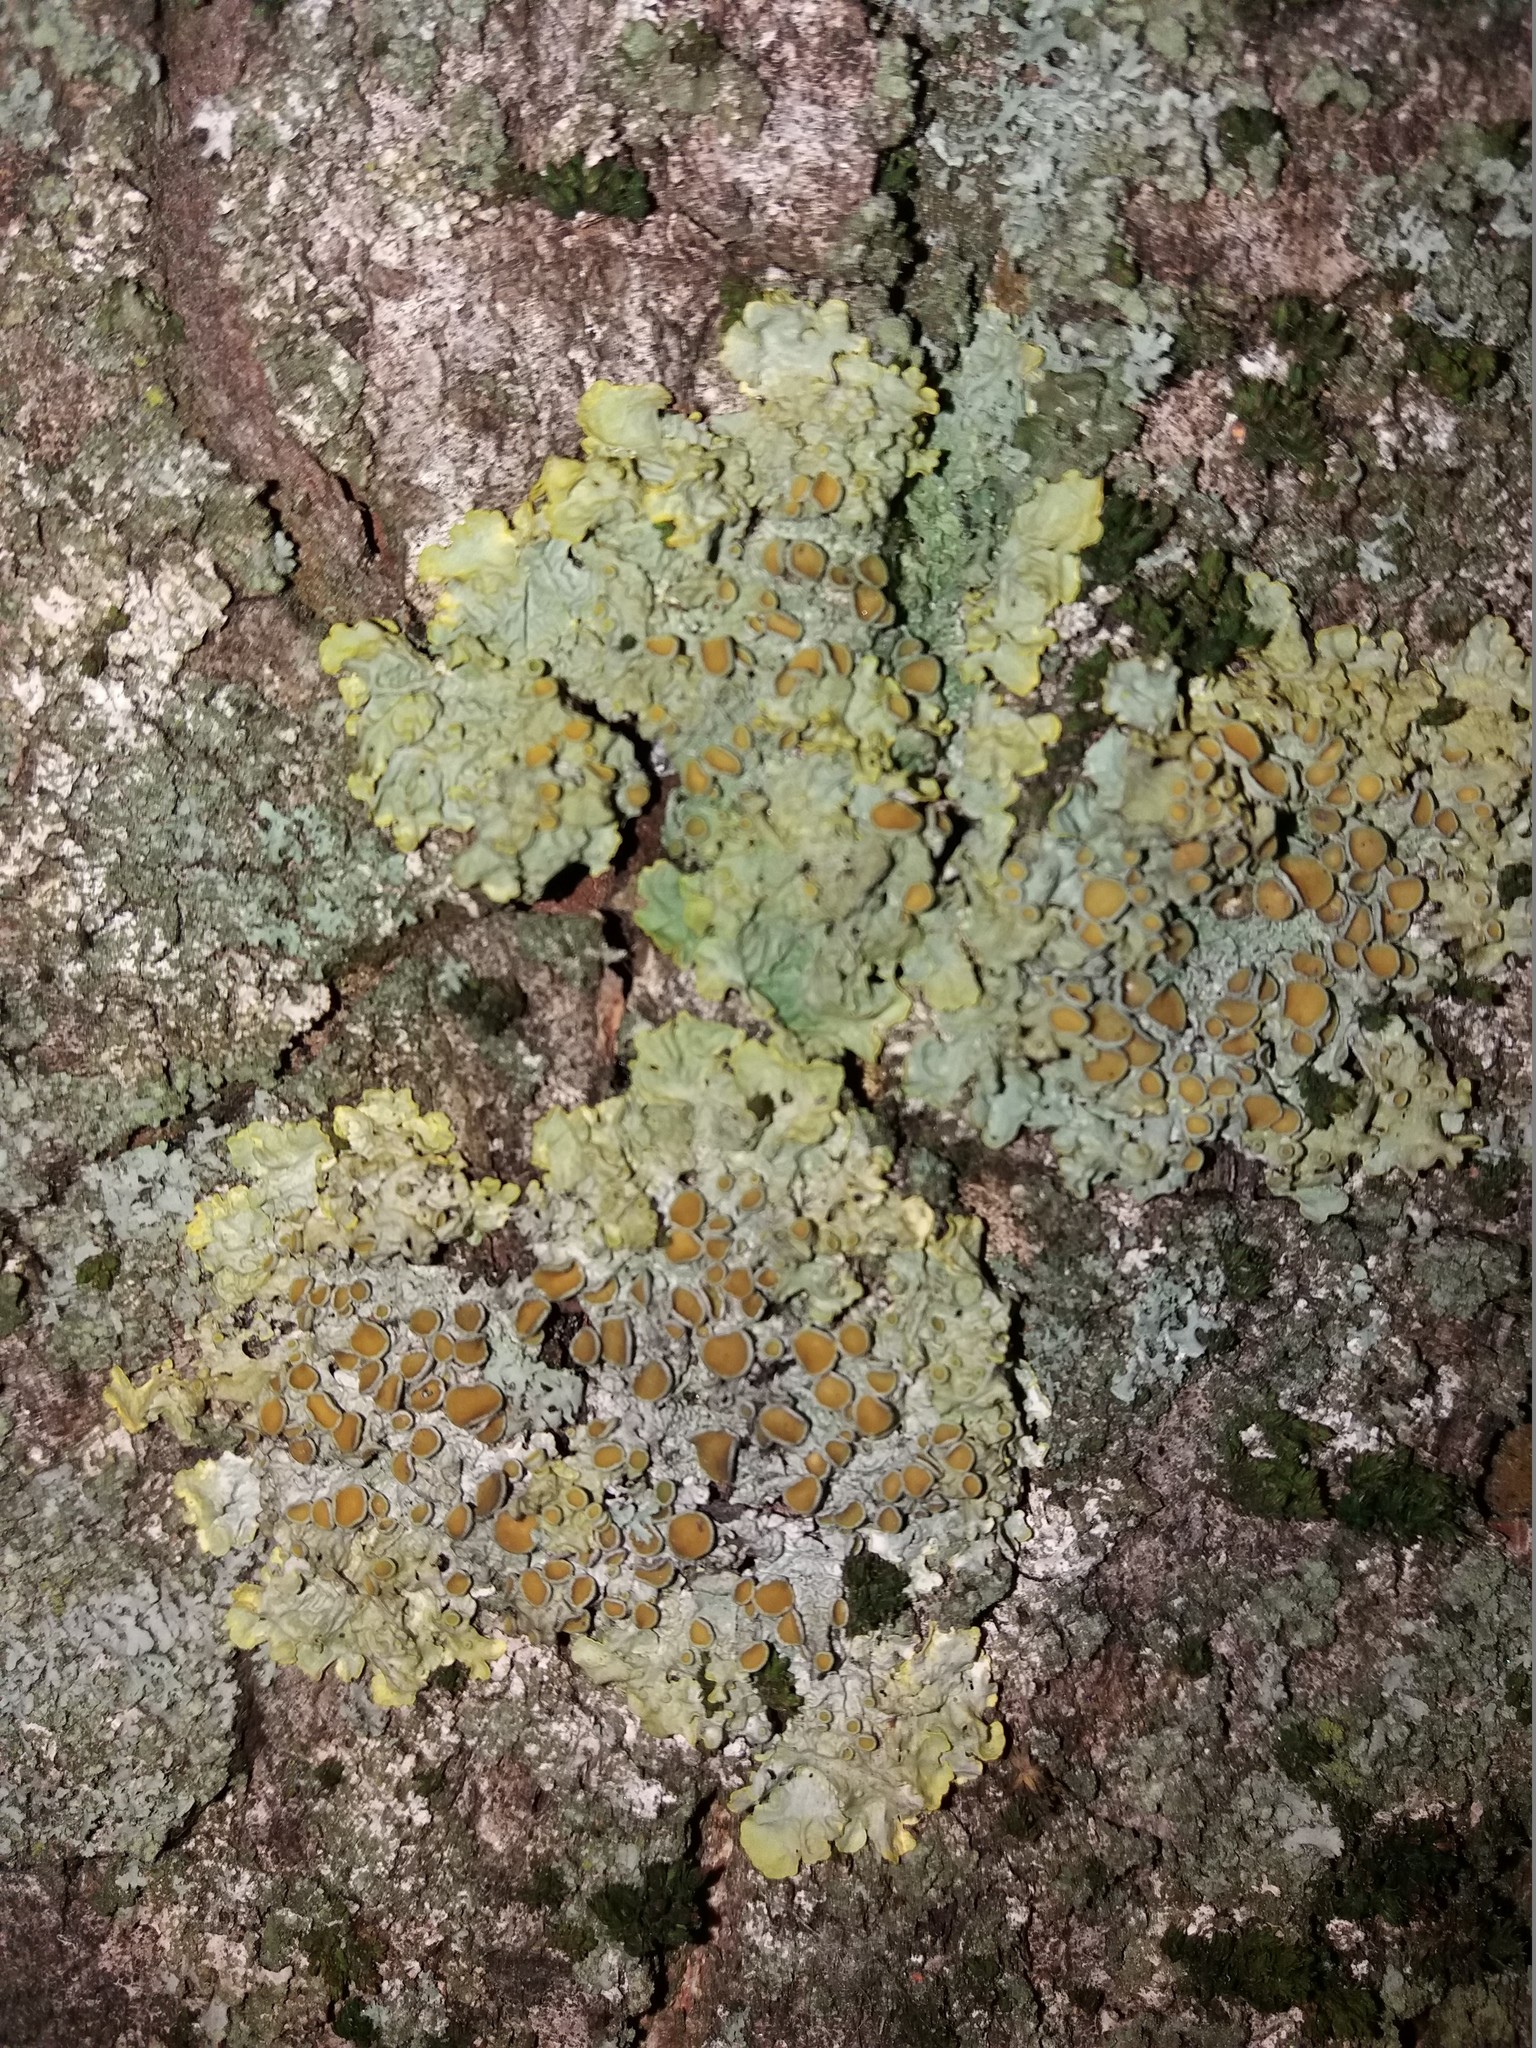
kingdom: Fungi
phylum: Ascomycota
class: Lecanoromycetes
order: Teloschistales
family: Teloschistaceae
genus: Xanthoria
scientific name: Xanthoria parietina
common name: Common orange lichen
